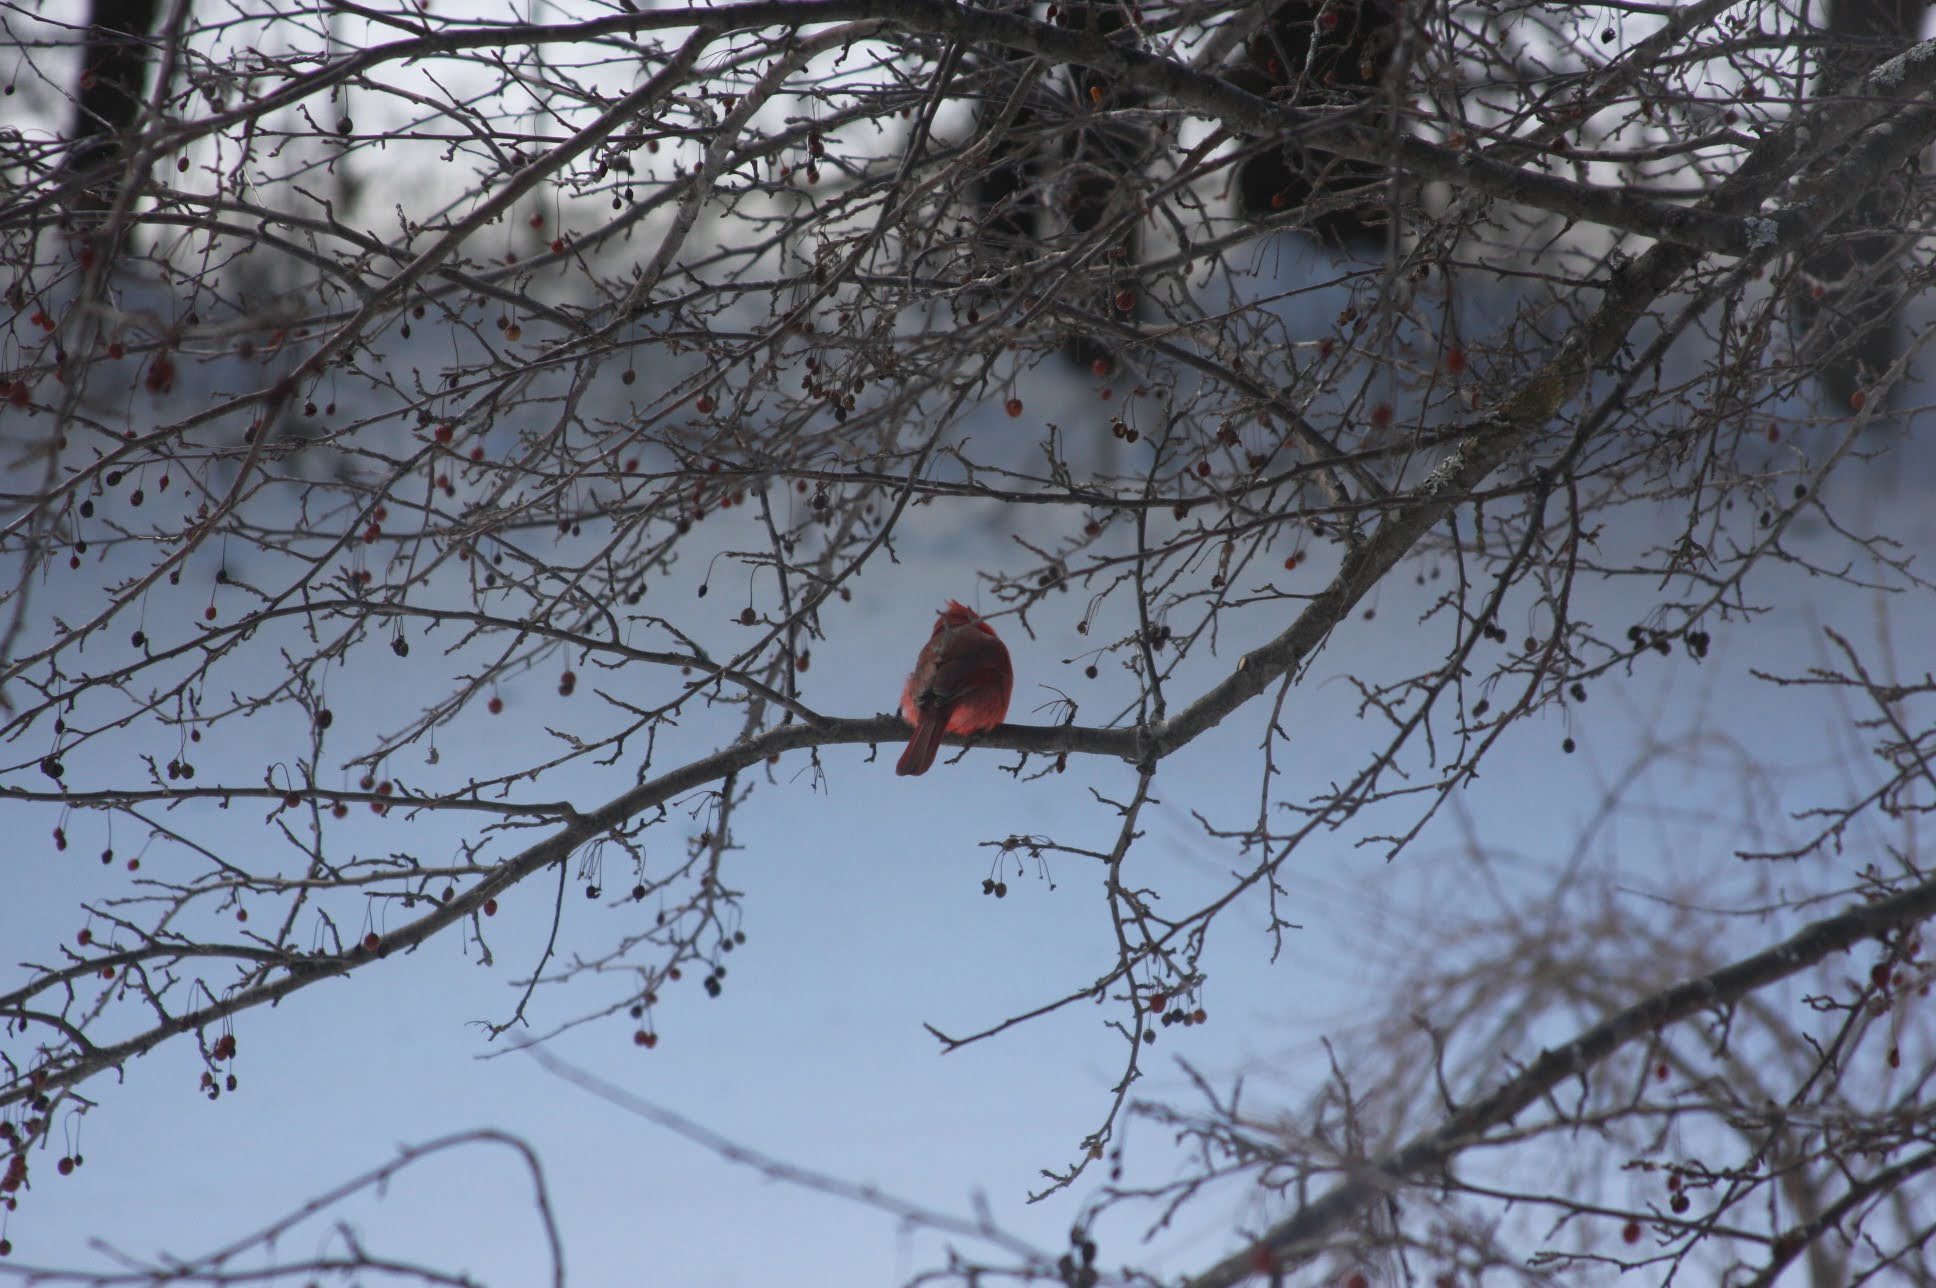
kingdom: Animalia
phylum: Chordata
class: Aves
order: Passeriformes
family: Cardinalidae
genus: Cardinalis
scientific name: Cardinalis cardinalis
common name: Northern cardinal
